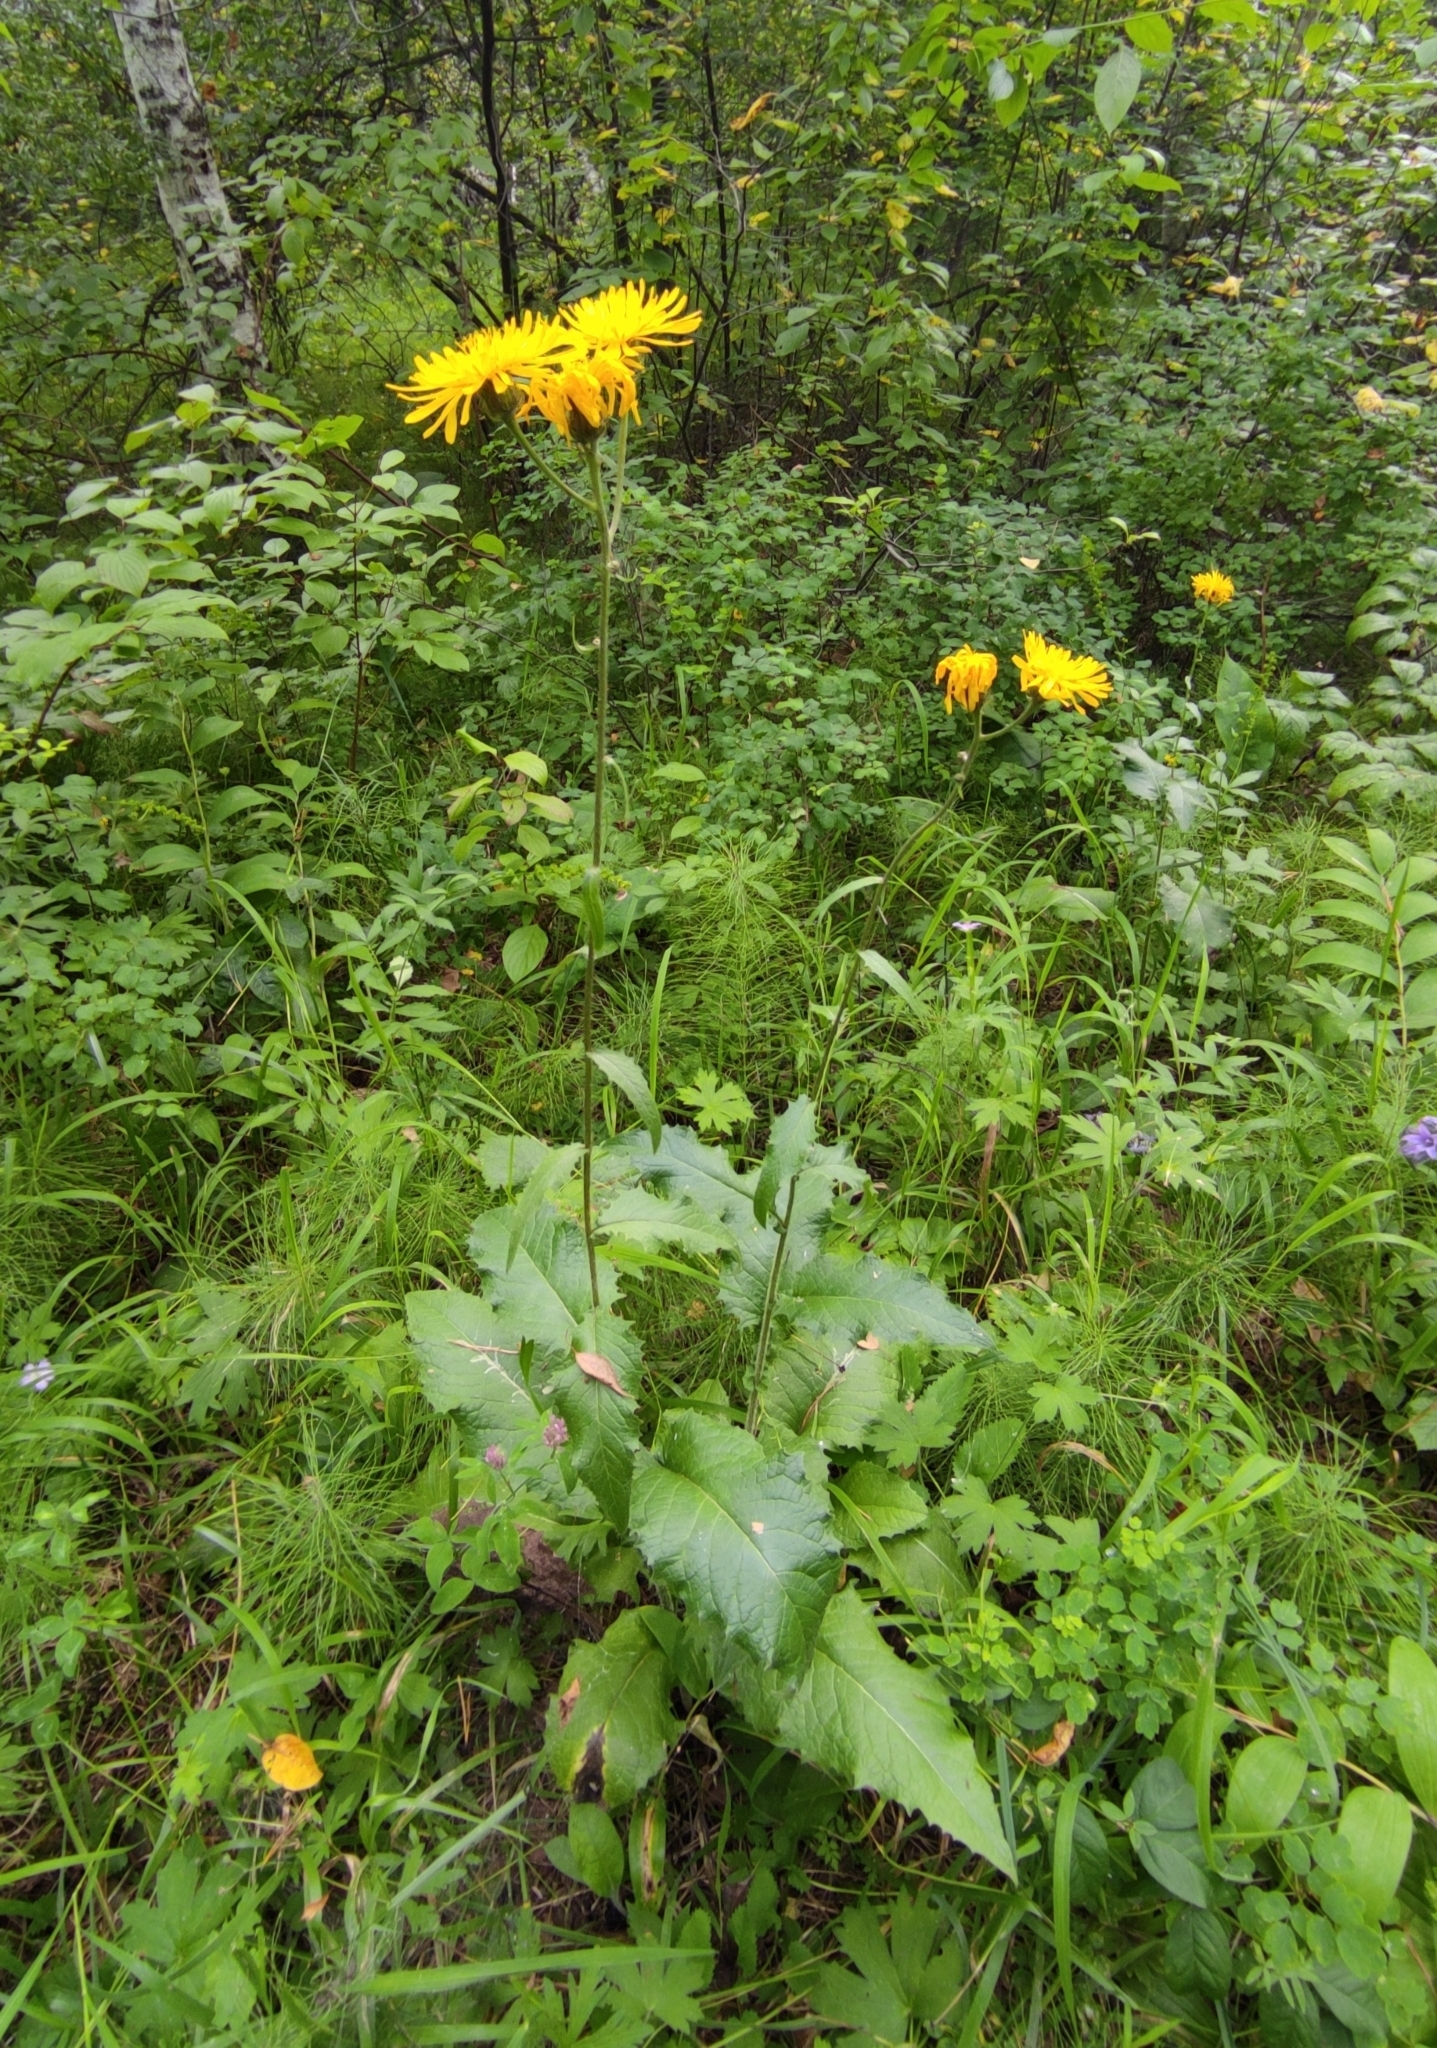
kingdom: Plantae
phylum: Tracheophyta
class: Magnoliopsida
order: Asterales
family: Asteraceae
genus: Crepis
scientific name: Crepis sibirica
